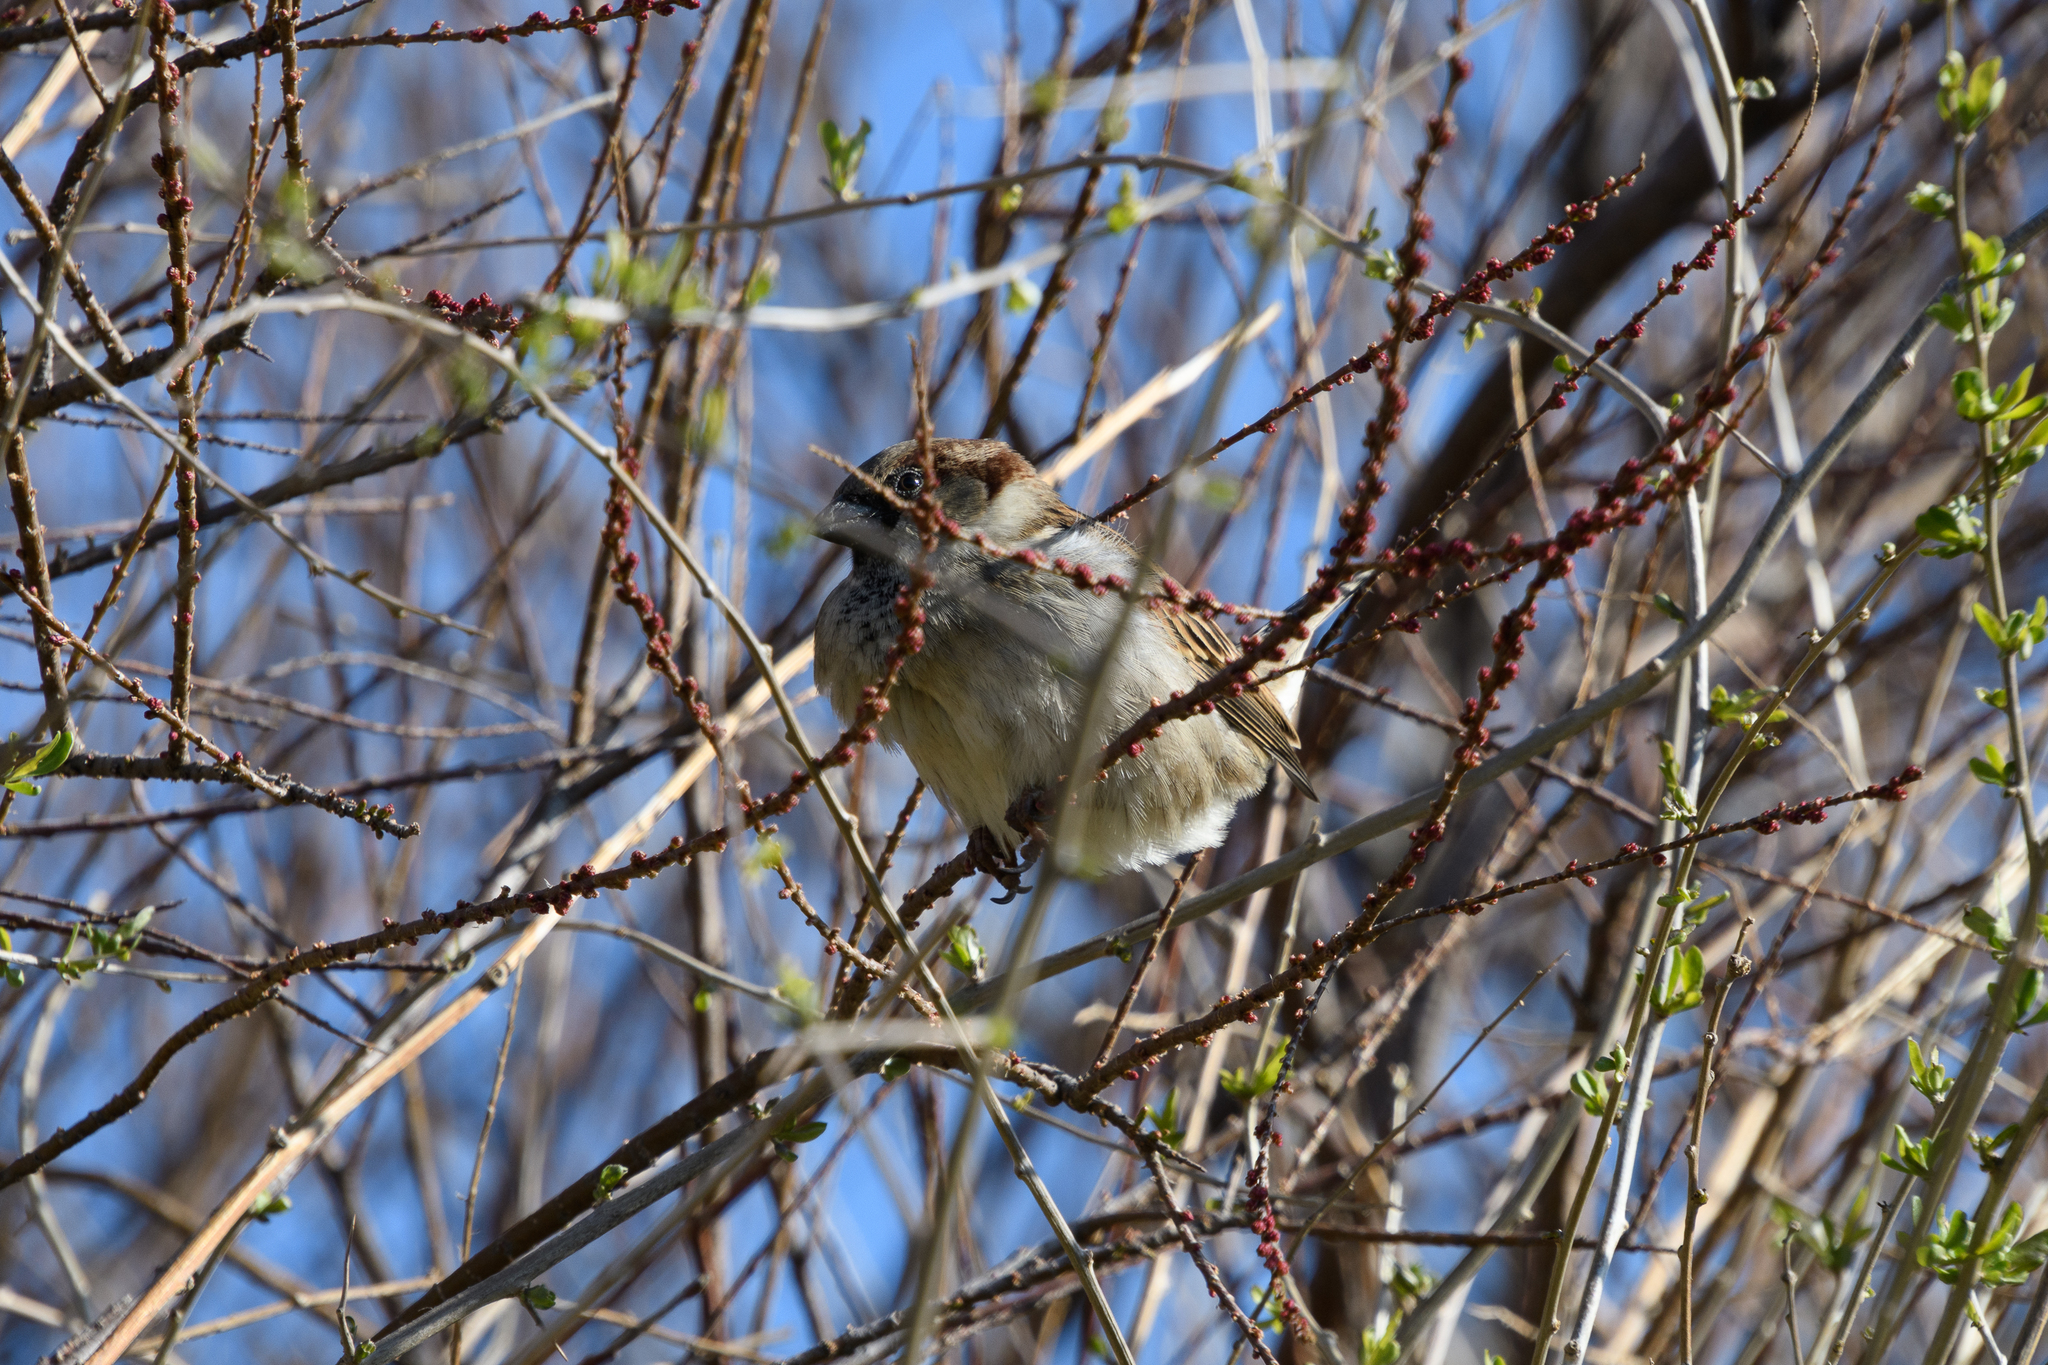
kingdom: Animalia
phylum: Chordata
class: Aves
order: Passeriformes
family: Passeridae
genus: Passer
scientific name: Passer domesticus
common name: House sparrow
